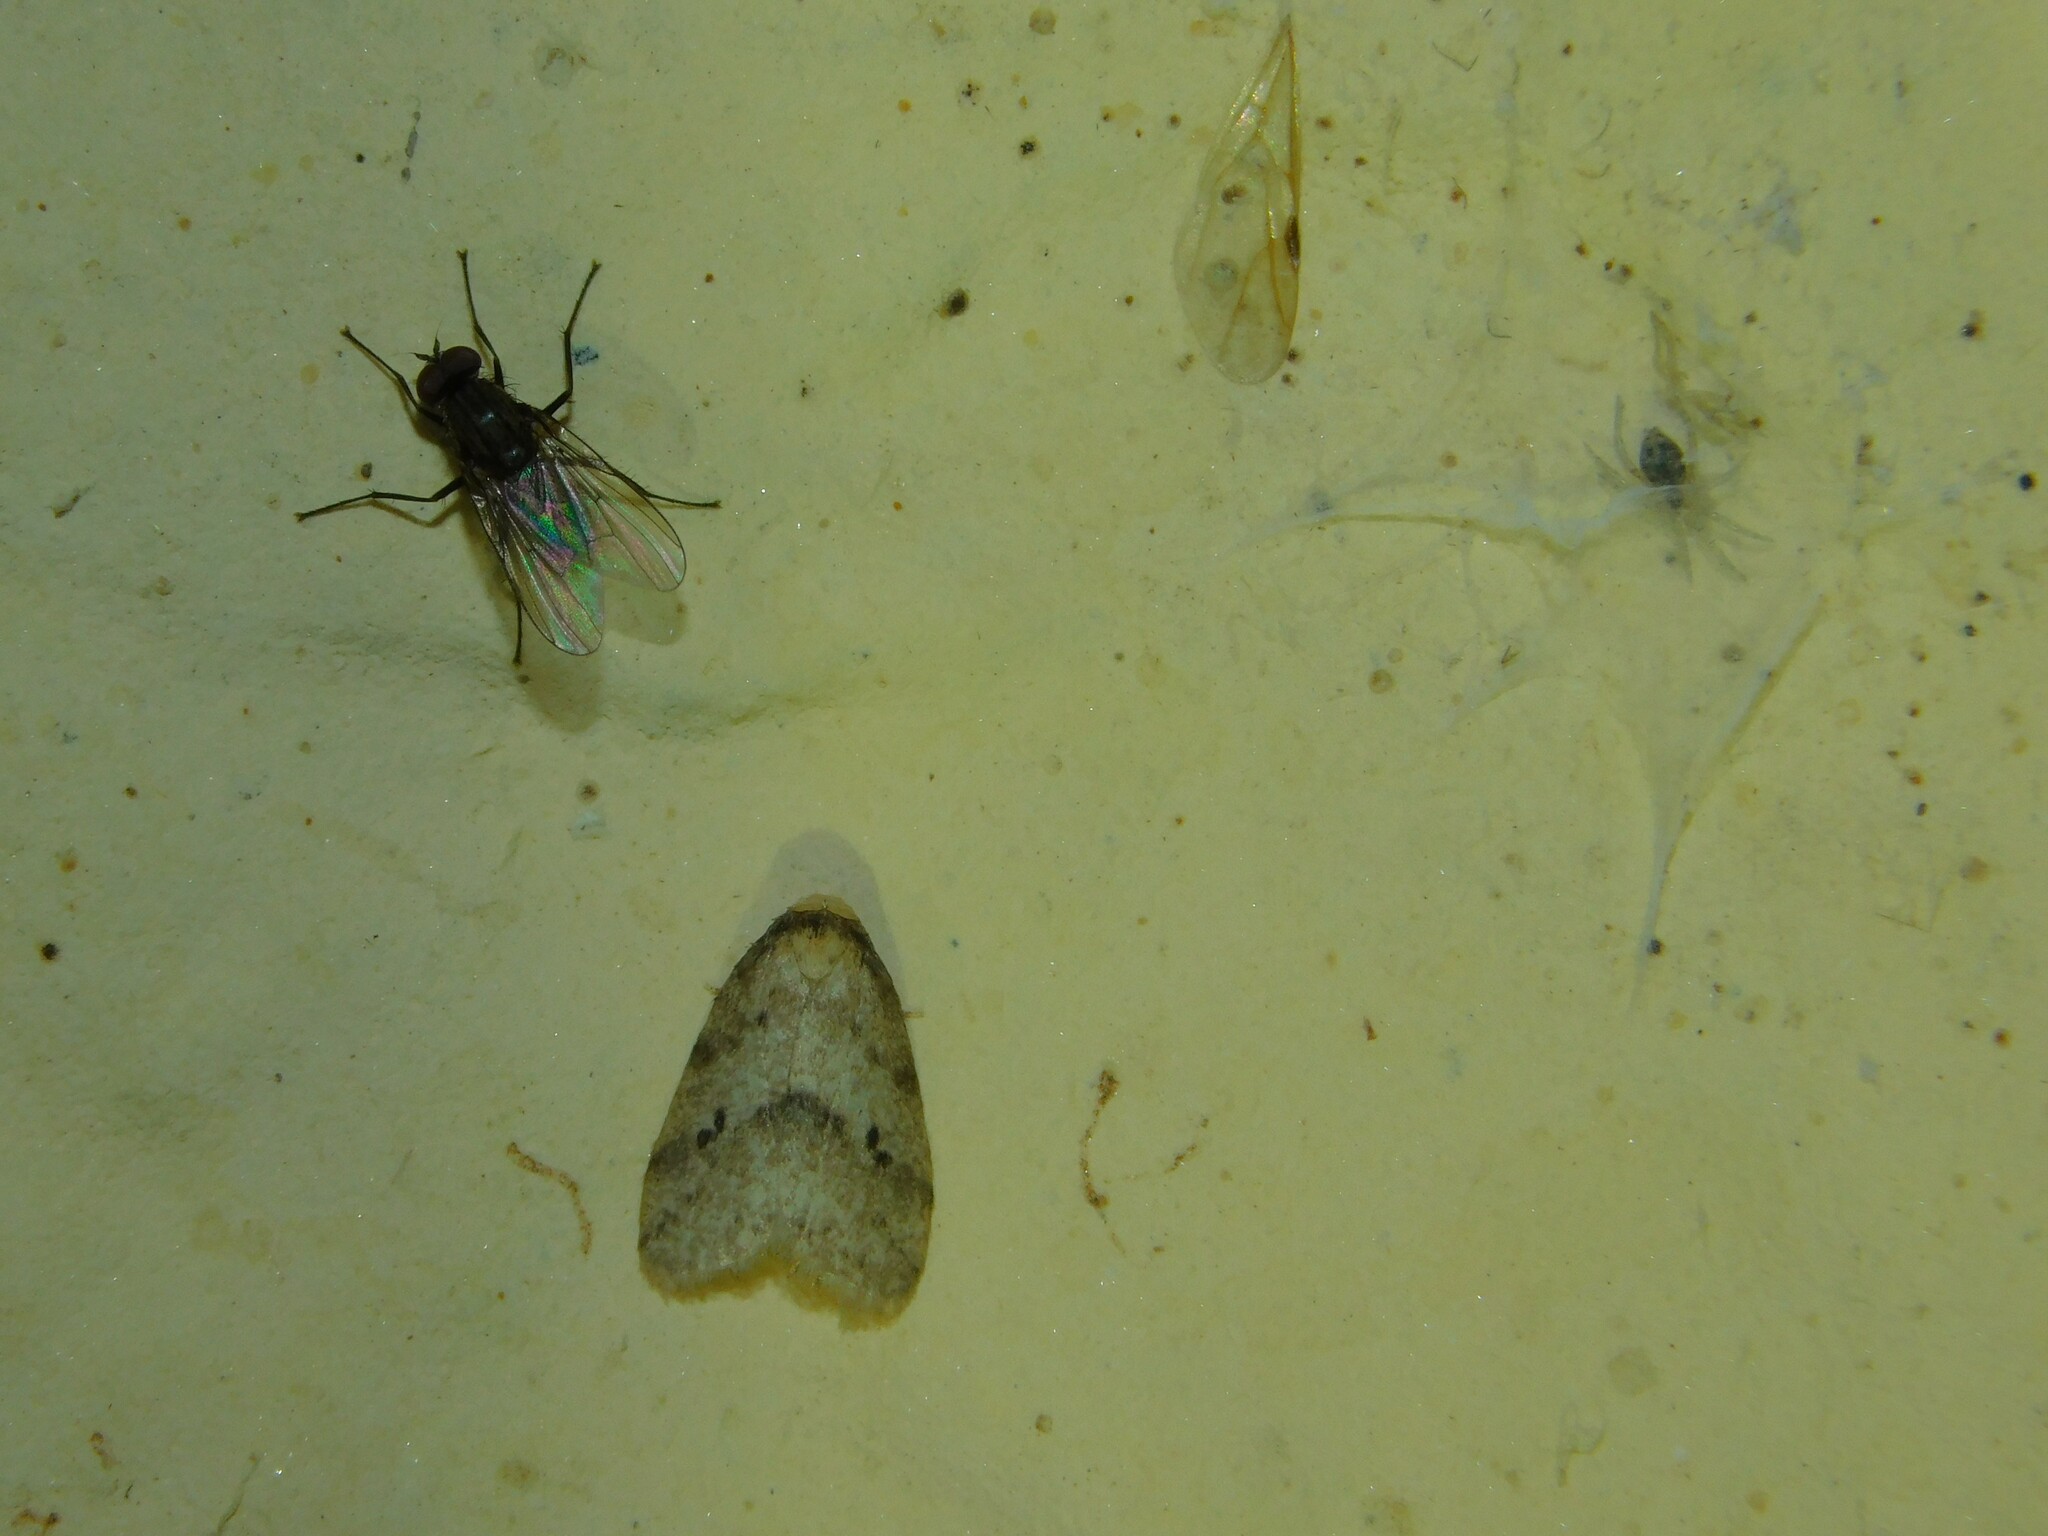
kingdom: Animalia
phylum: Arthropoda
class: Arachnida
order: Araneae
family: Oecobiidae
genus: Oecobius
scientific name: Oecobius
